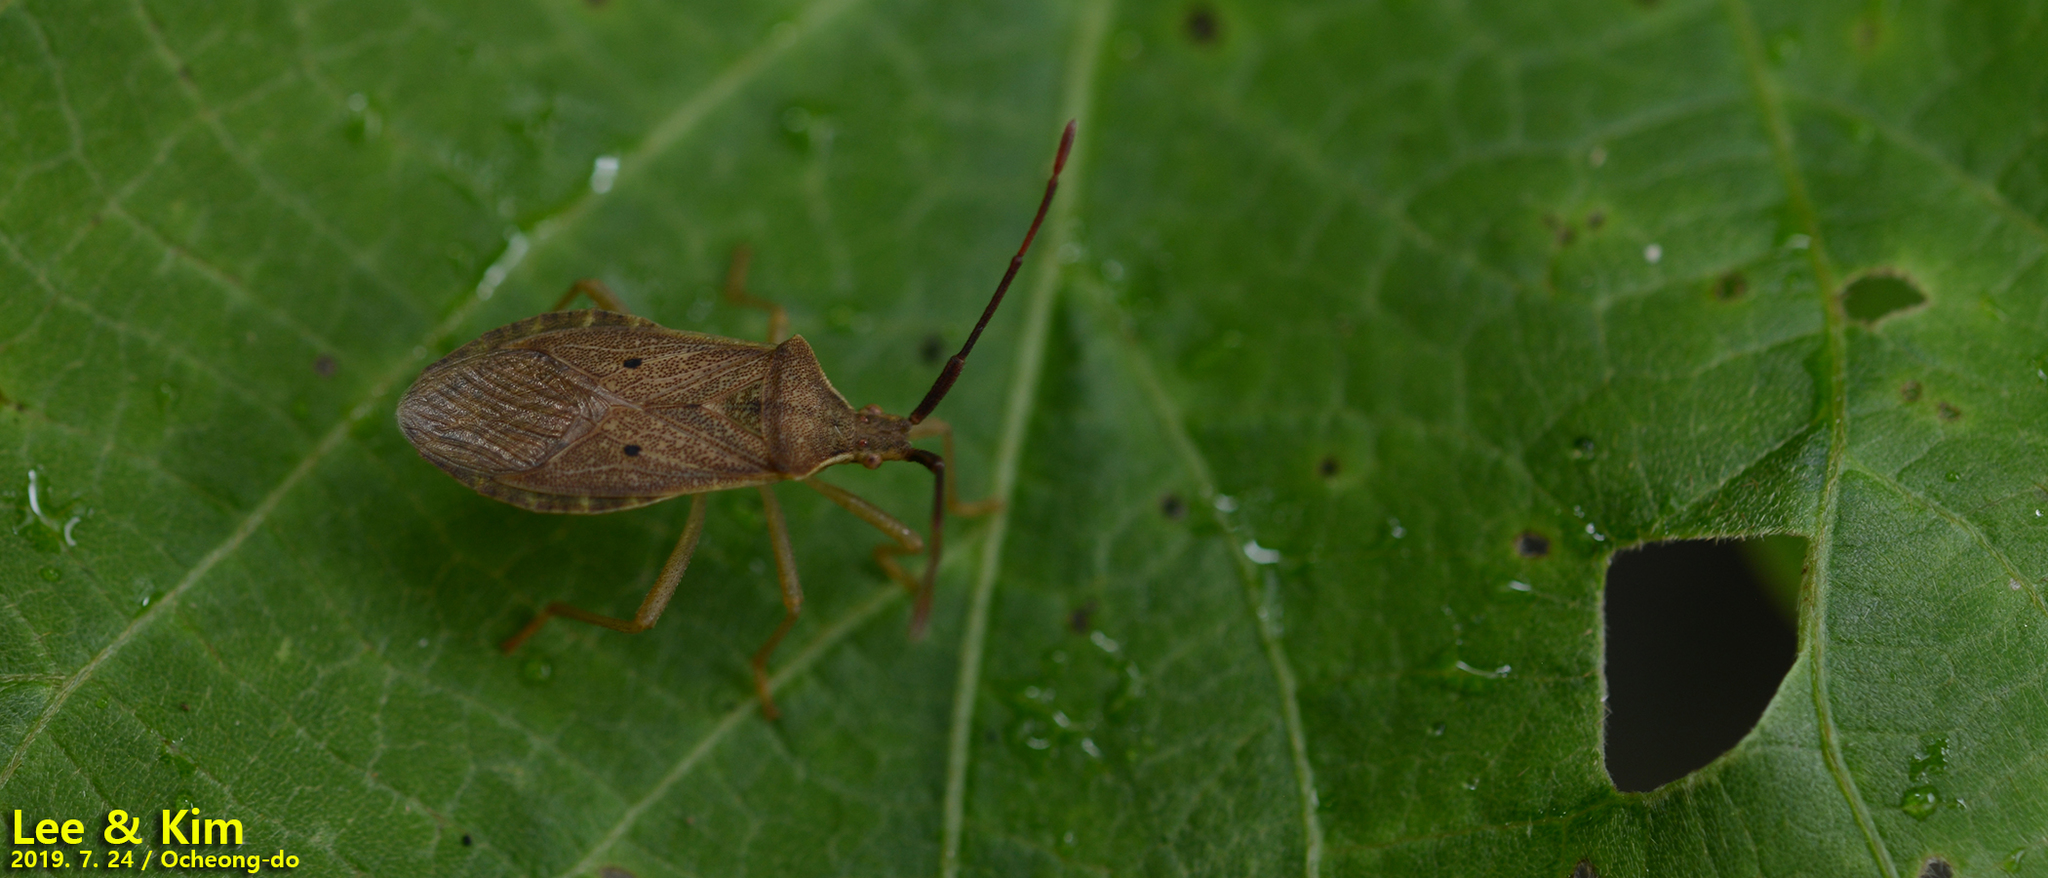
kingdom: Animalia
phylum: Arthropoda
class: Insecta
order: Hemiptera
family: Coreidae
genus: Homoeocerus
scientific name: Homoeocerus unipunctatus
